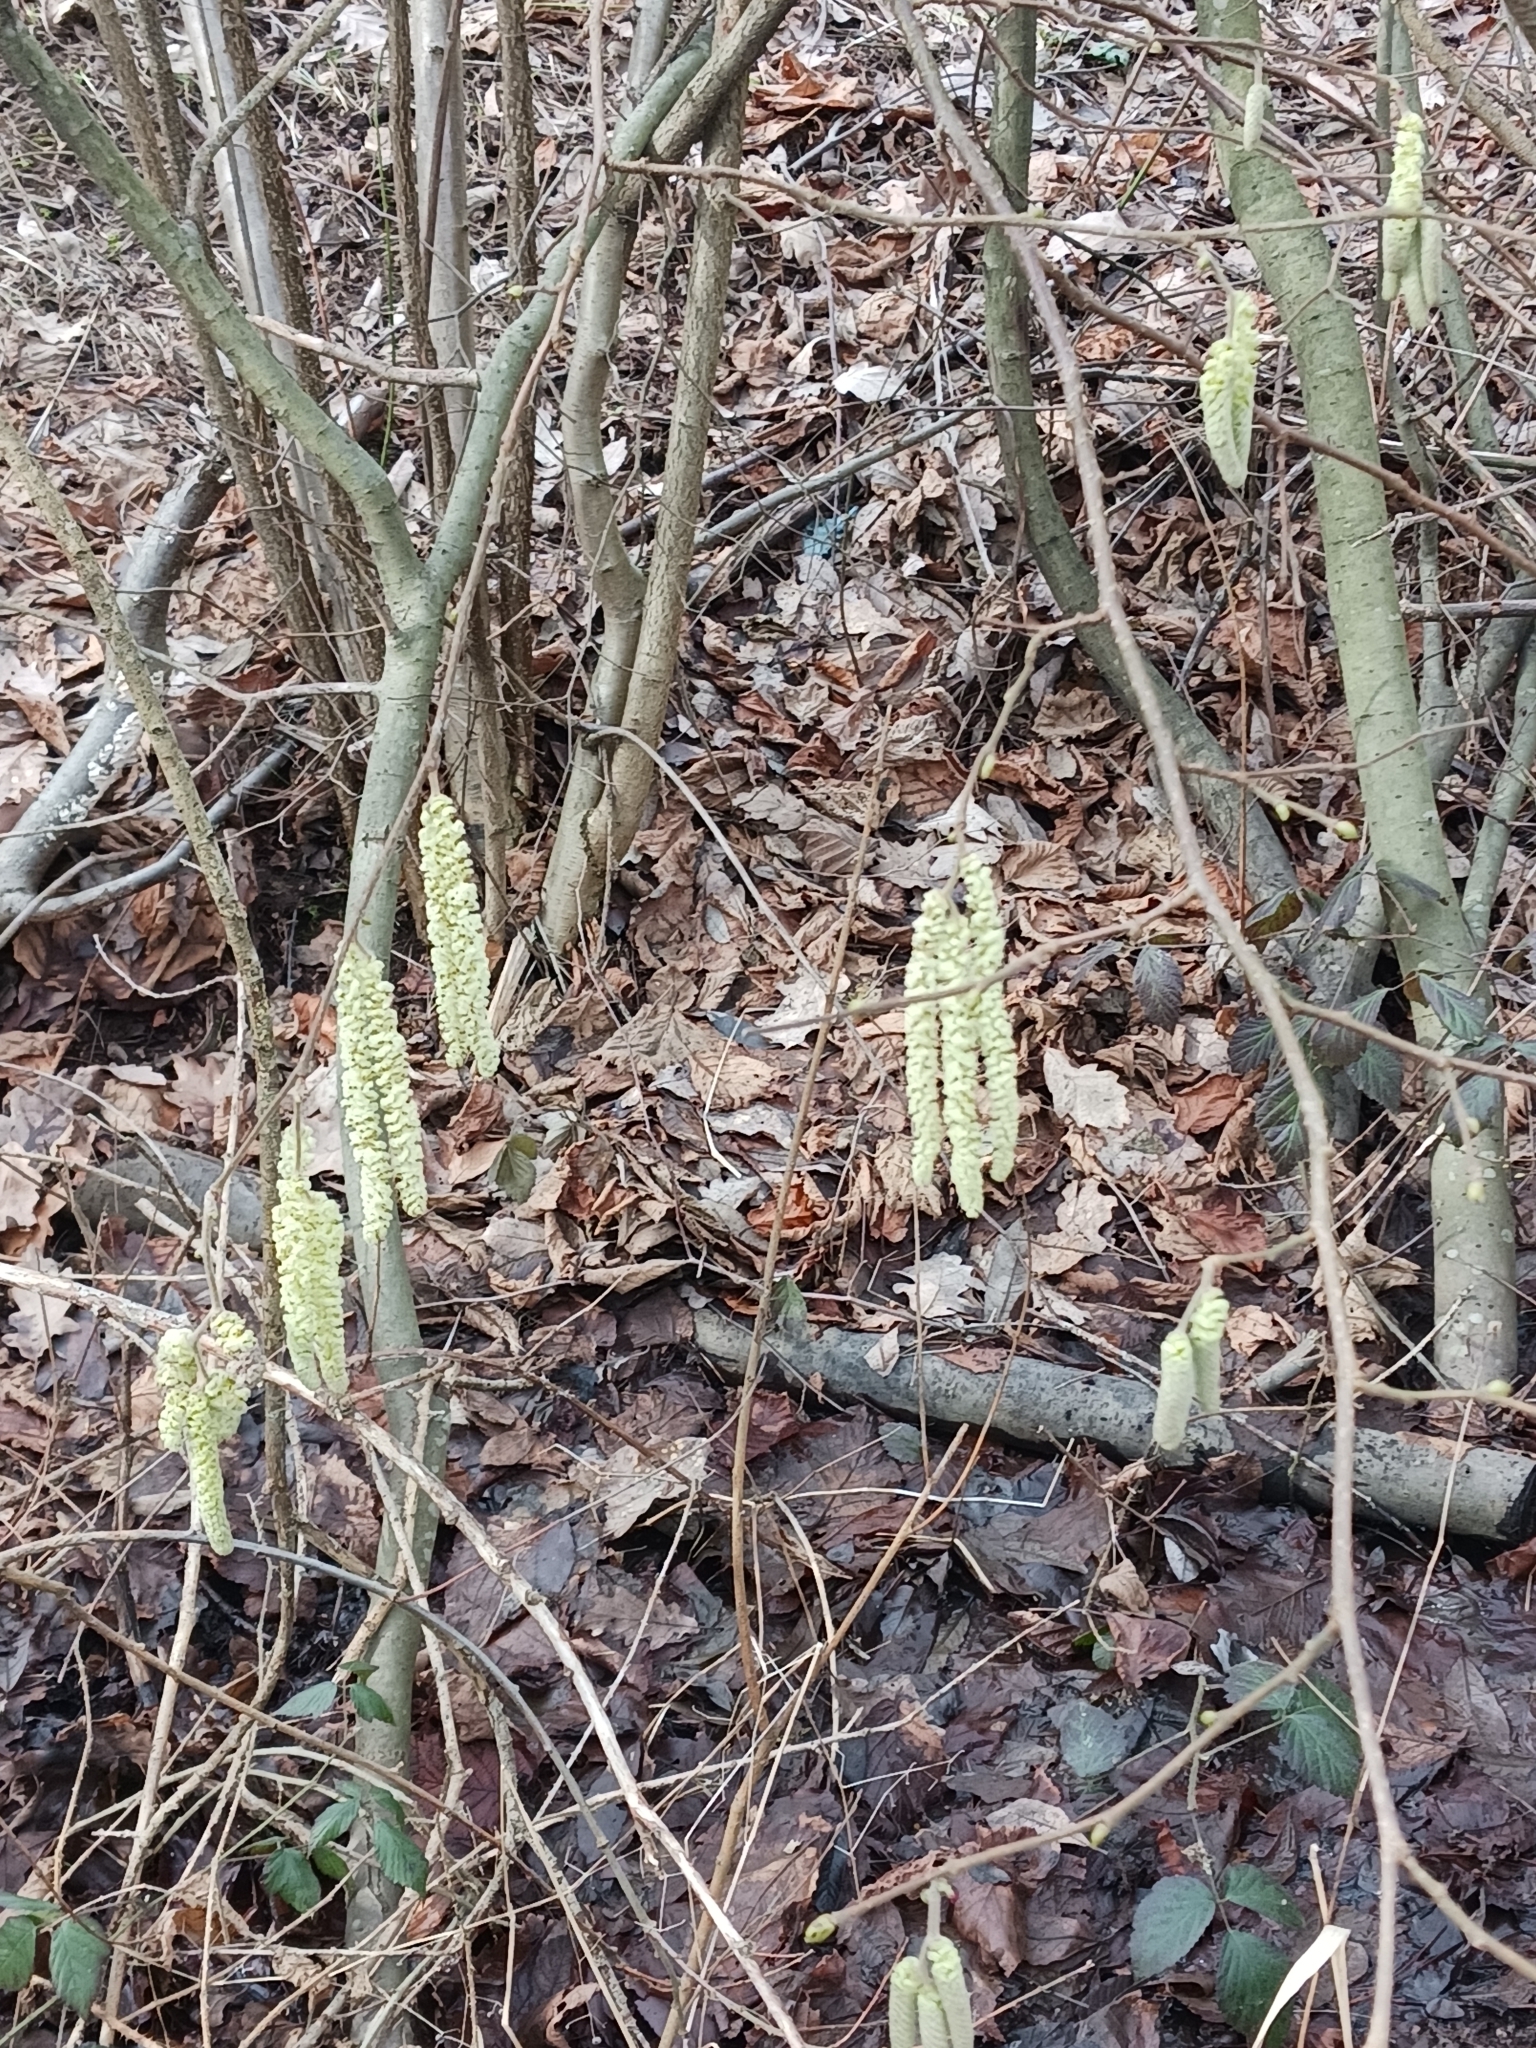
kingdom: Plantae
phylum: Tracheophyta
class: Magnoliopsida
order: Fagales
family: Betulaceae
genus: Corylus
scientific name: Corylus avellana
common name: European hazel
